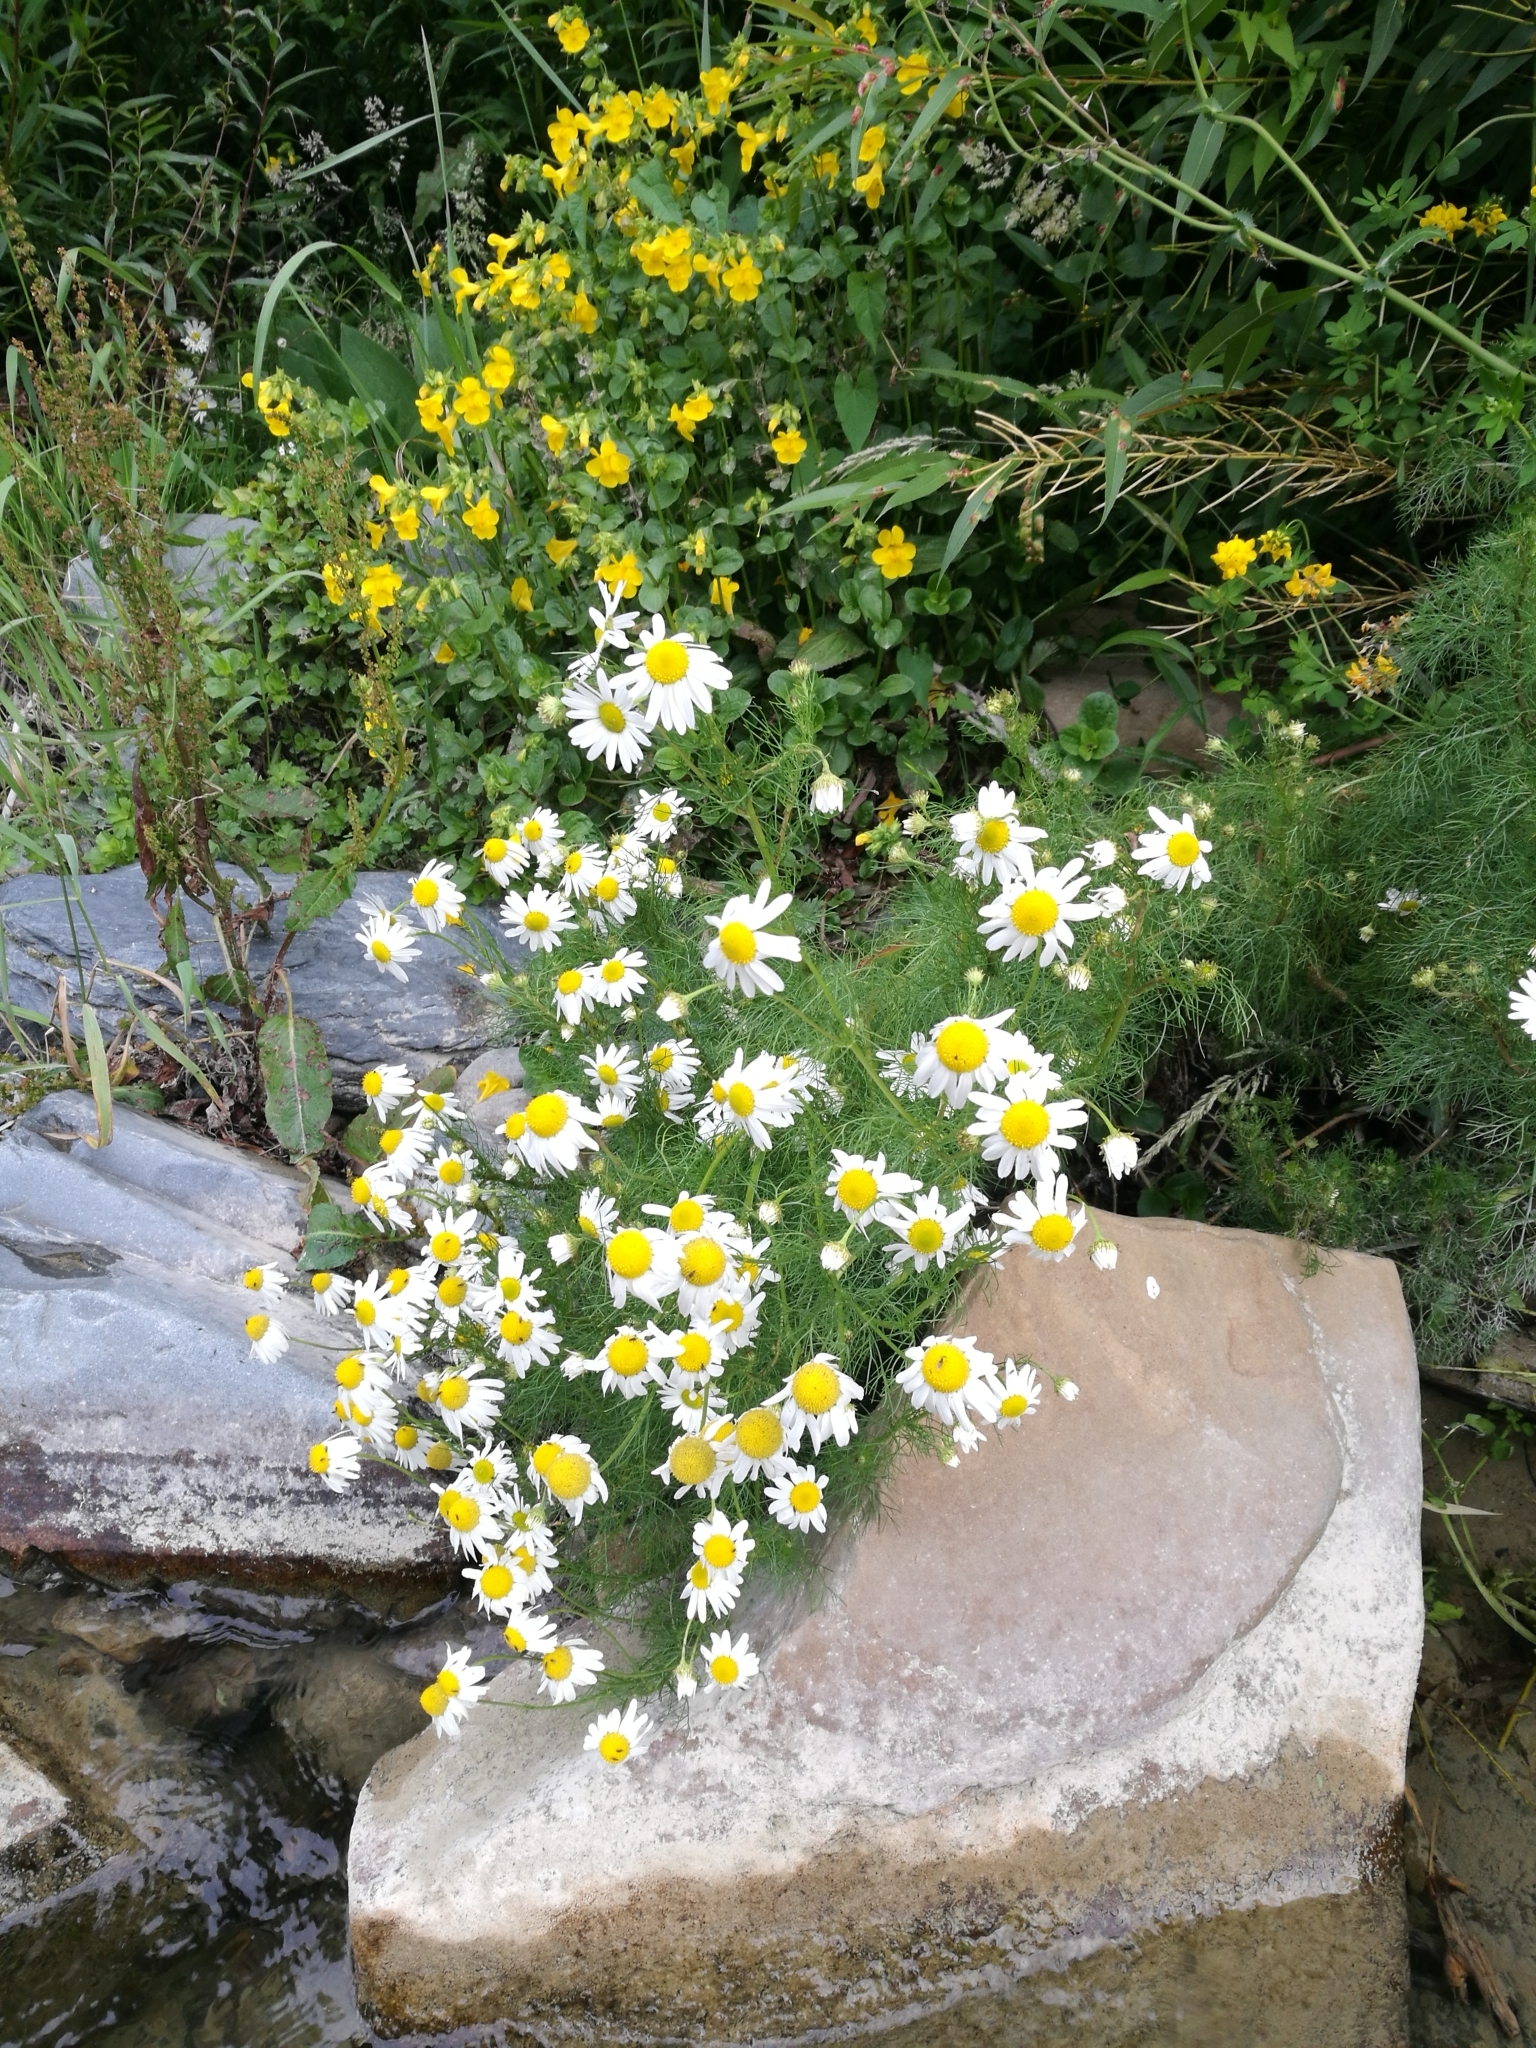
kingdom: Plantae
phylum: Tracheophyta
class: Magnoliopsida
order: Asterales
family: Asteraceae
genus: Tripleurospermum
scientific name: Tripleurospermum inodorum
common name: Scentless mayweed
